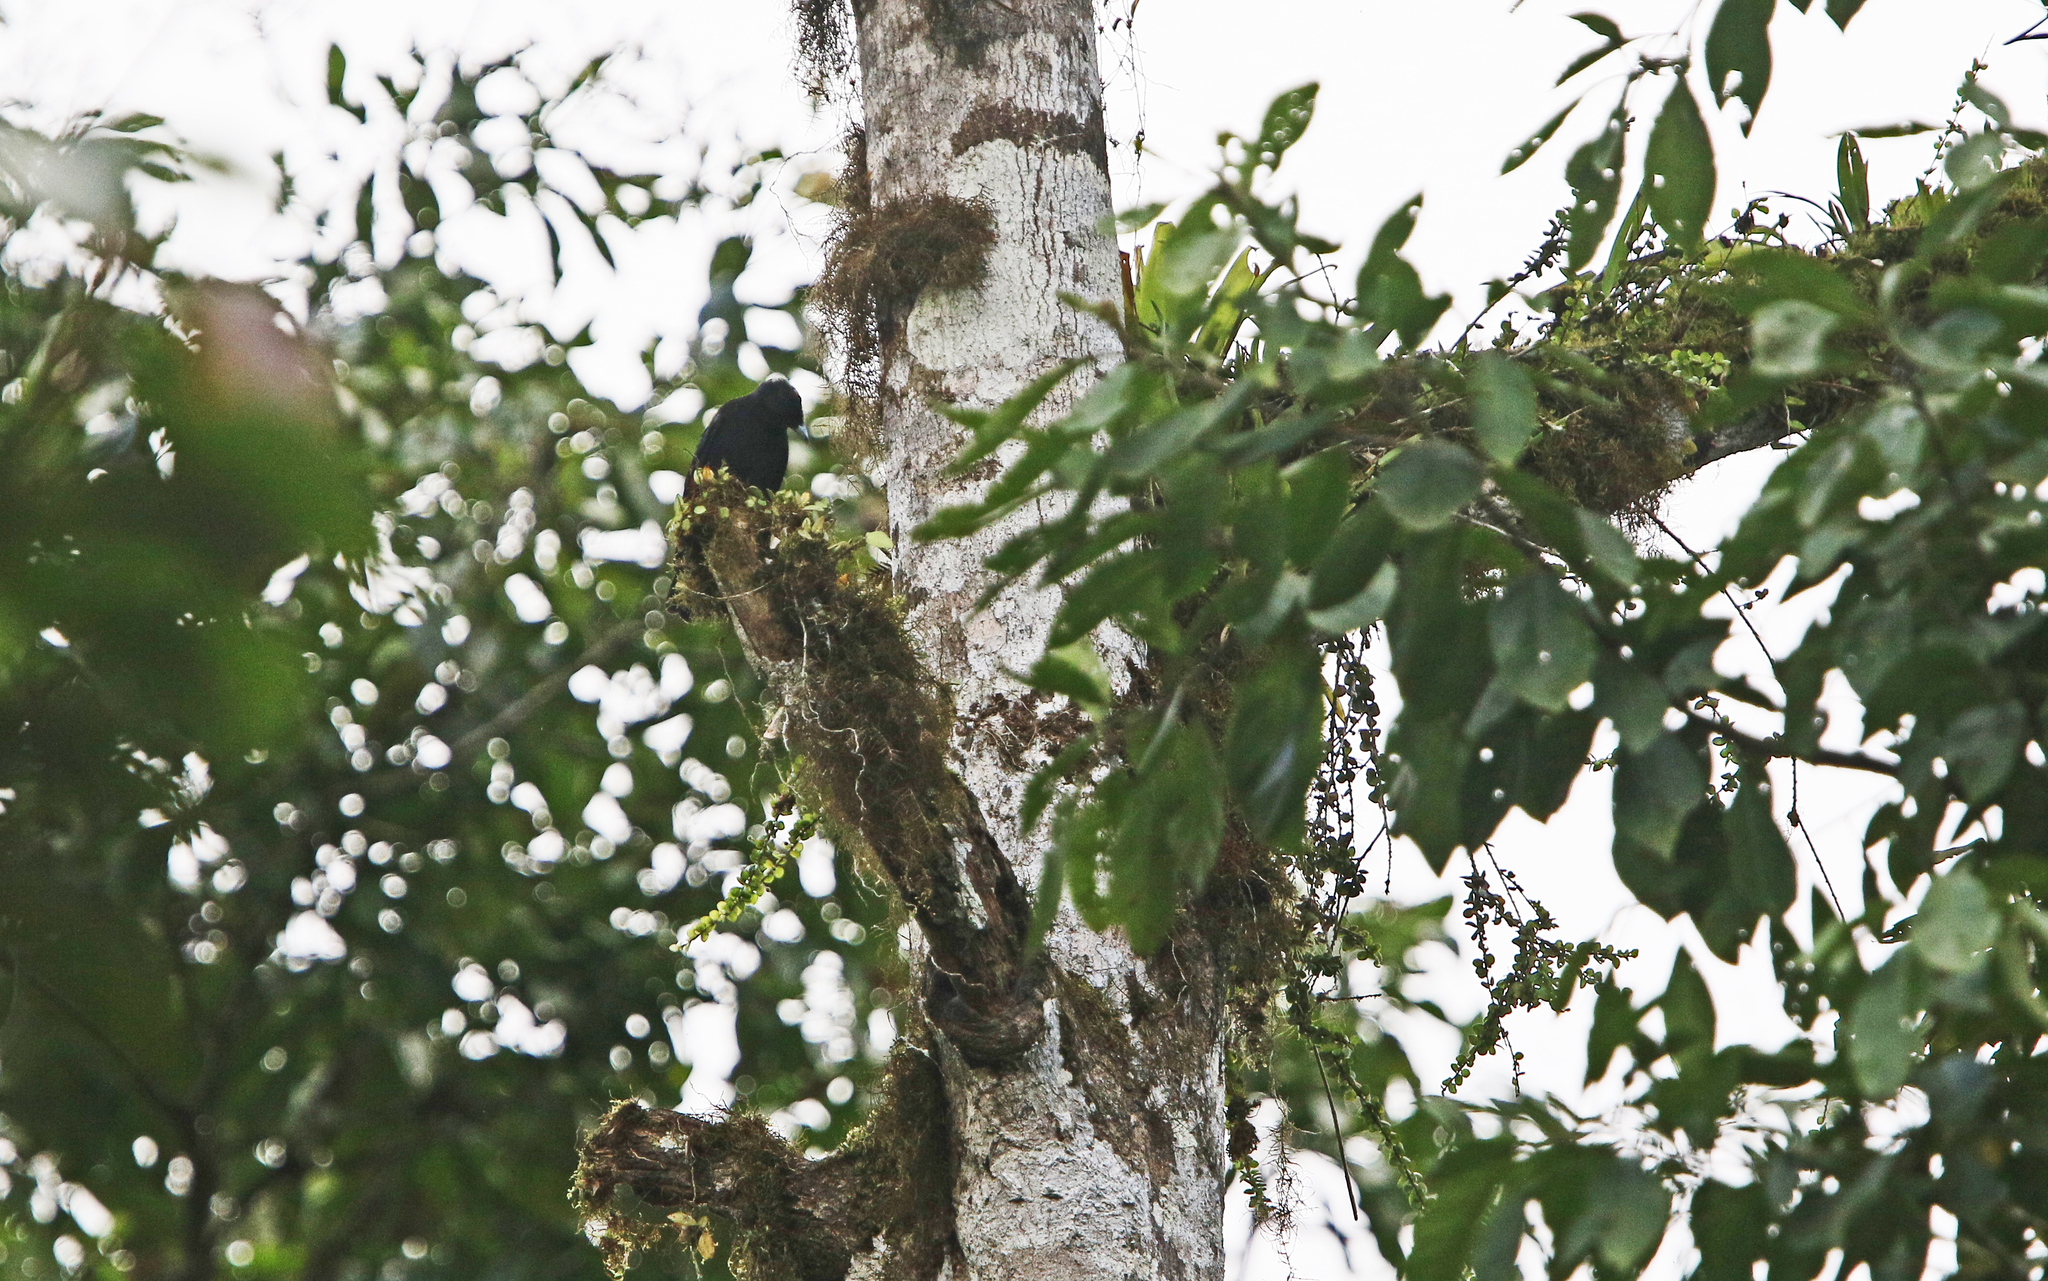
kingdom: Animalia
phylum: Chordata
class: Aves
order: Passeriformes
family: Cotingidae
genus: Querula
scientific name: Querula purpurata
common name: Purple-throated fruitcrow
